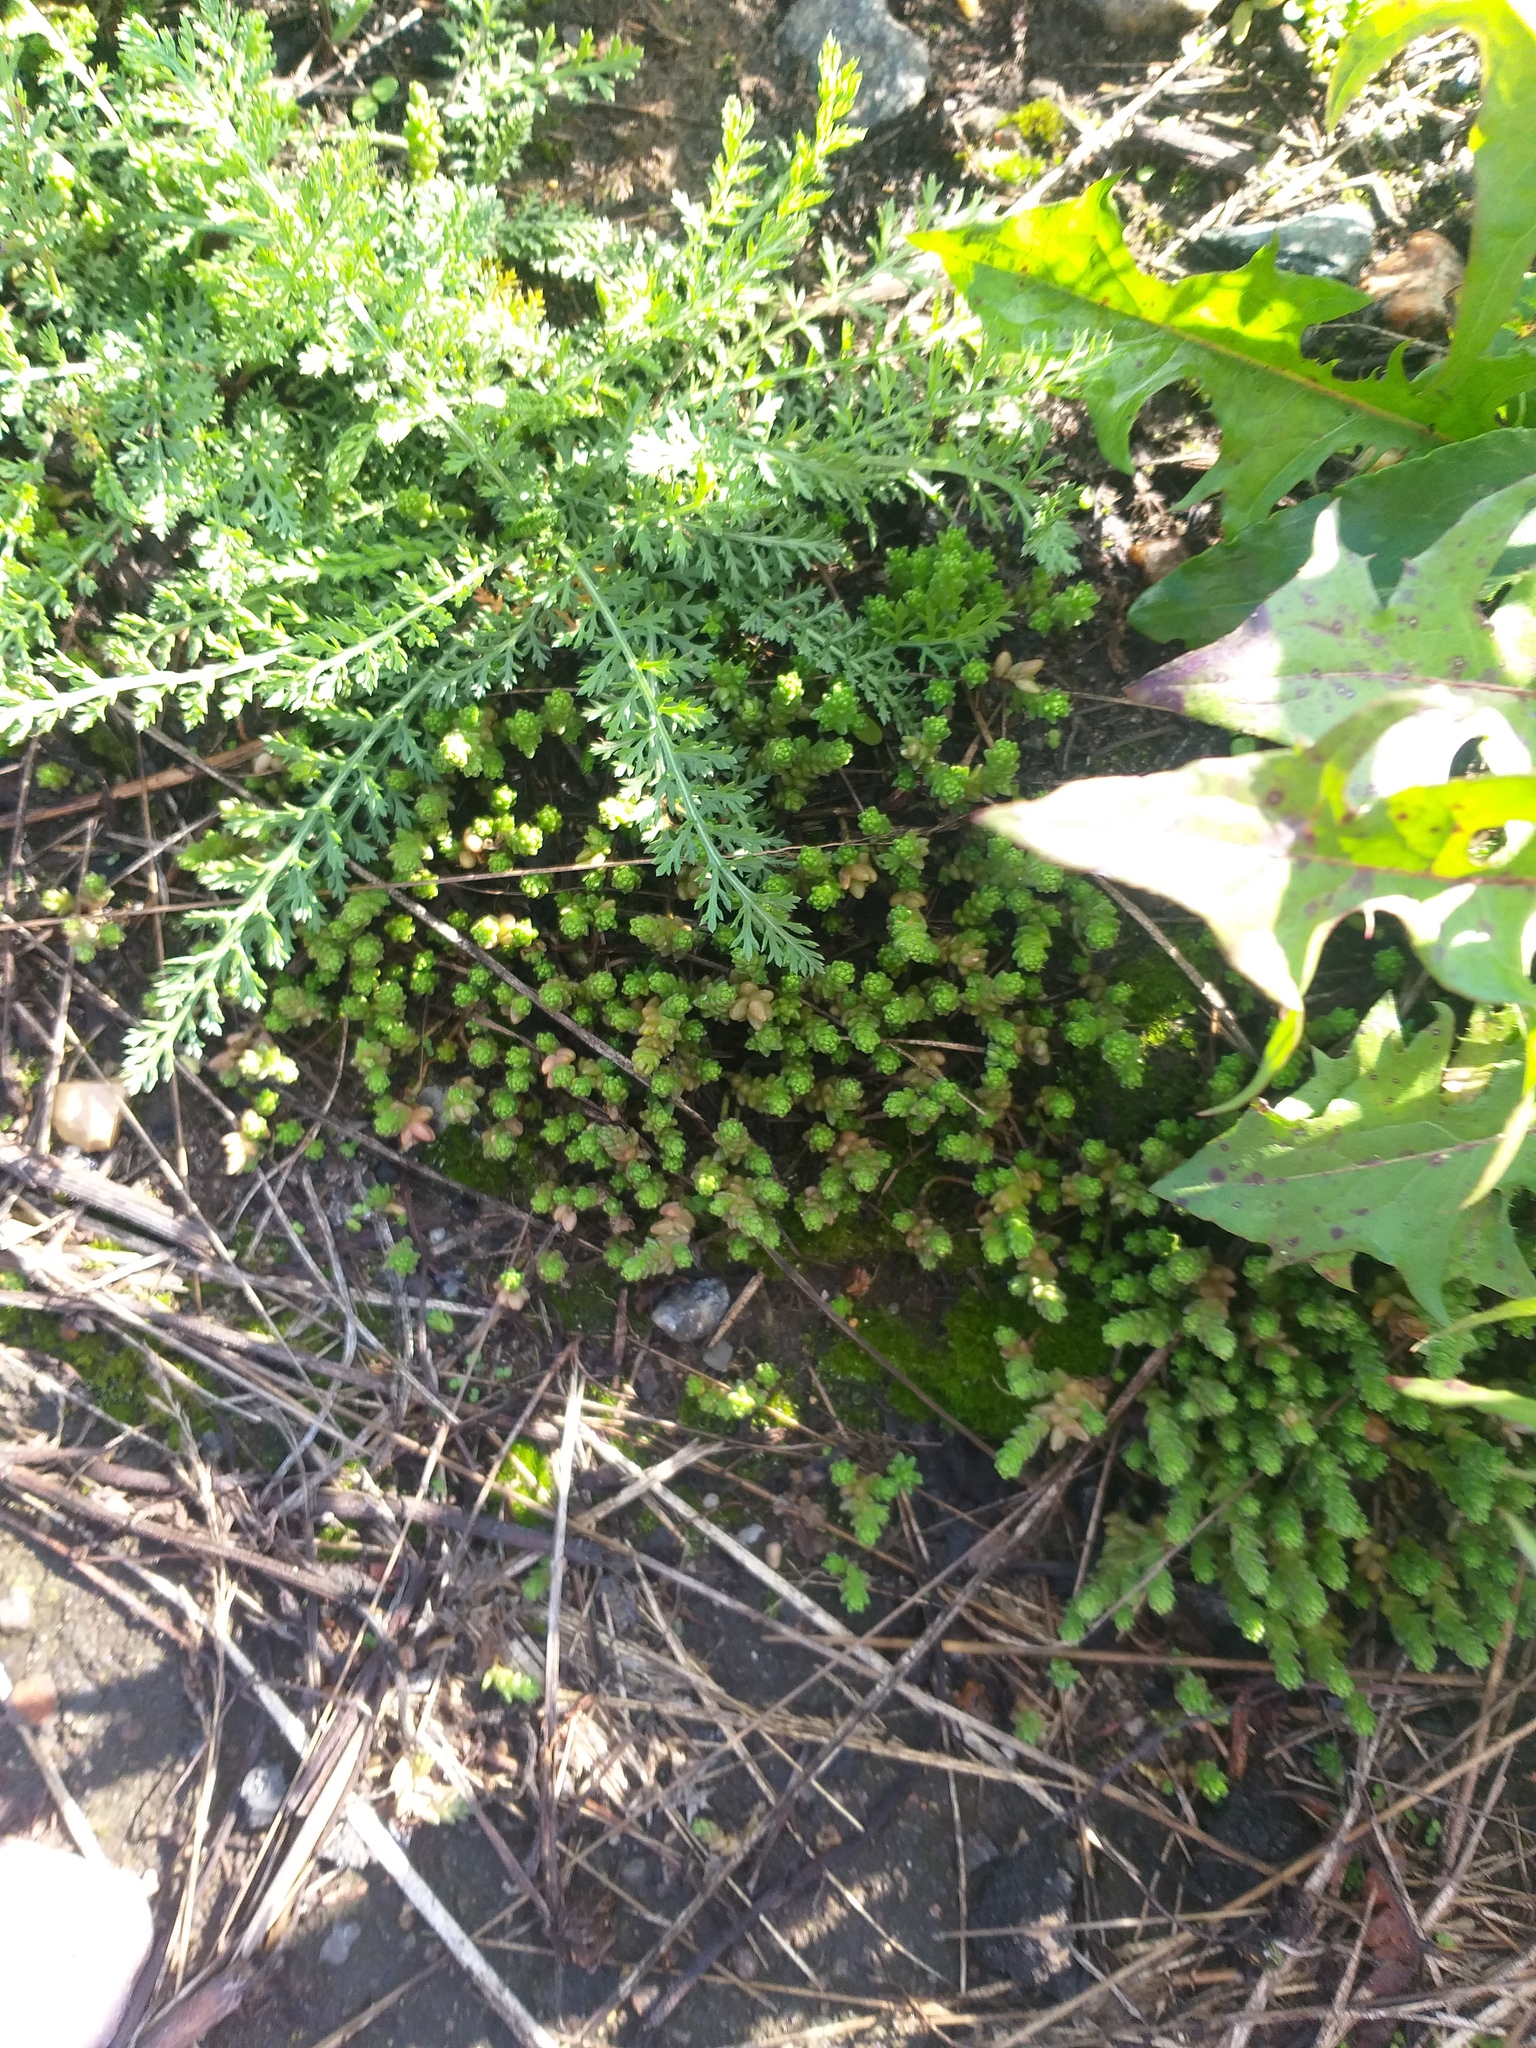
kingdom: Plantae
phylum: Tracheophyta
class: Magnoliopsida
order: Saxifragales
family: Crassulaceae
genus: Sedum
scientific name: Sedum acre
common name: Biting stonecrop
